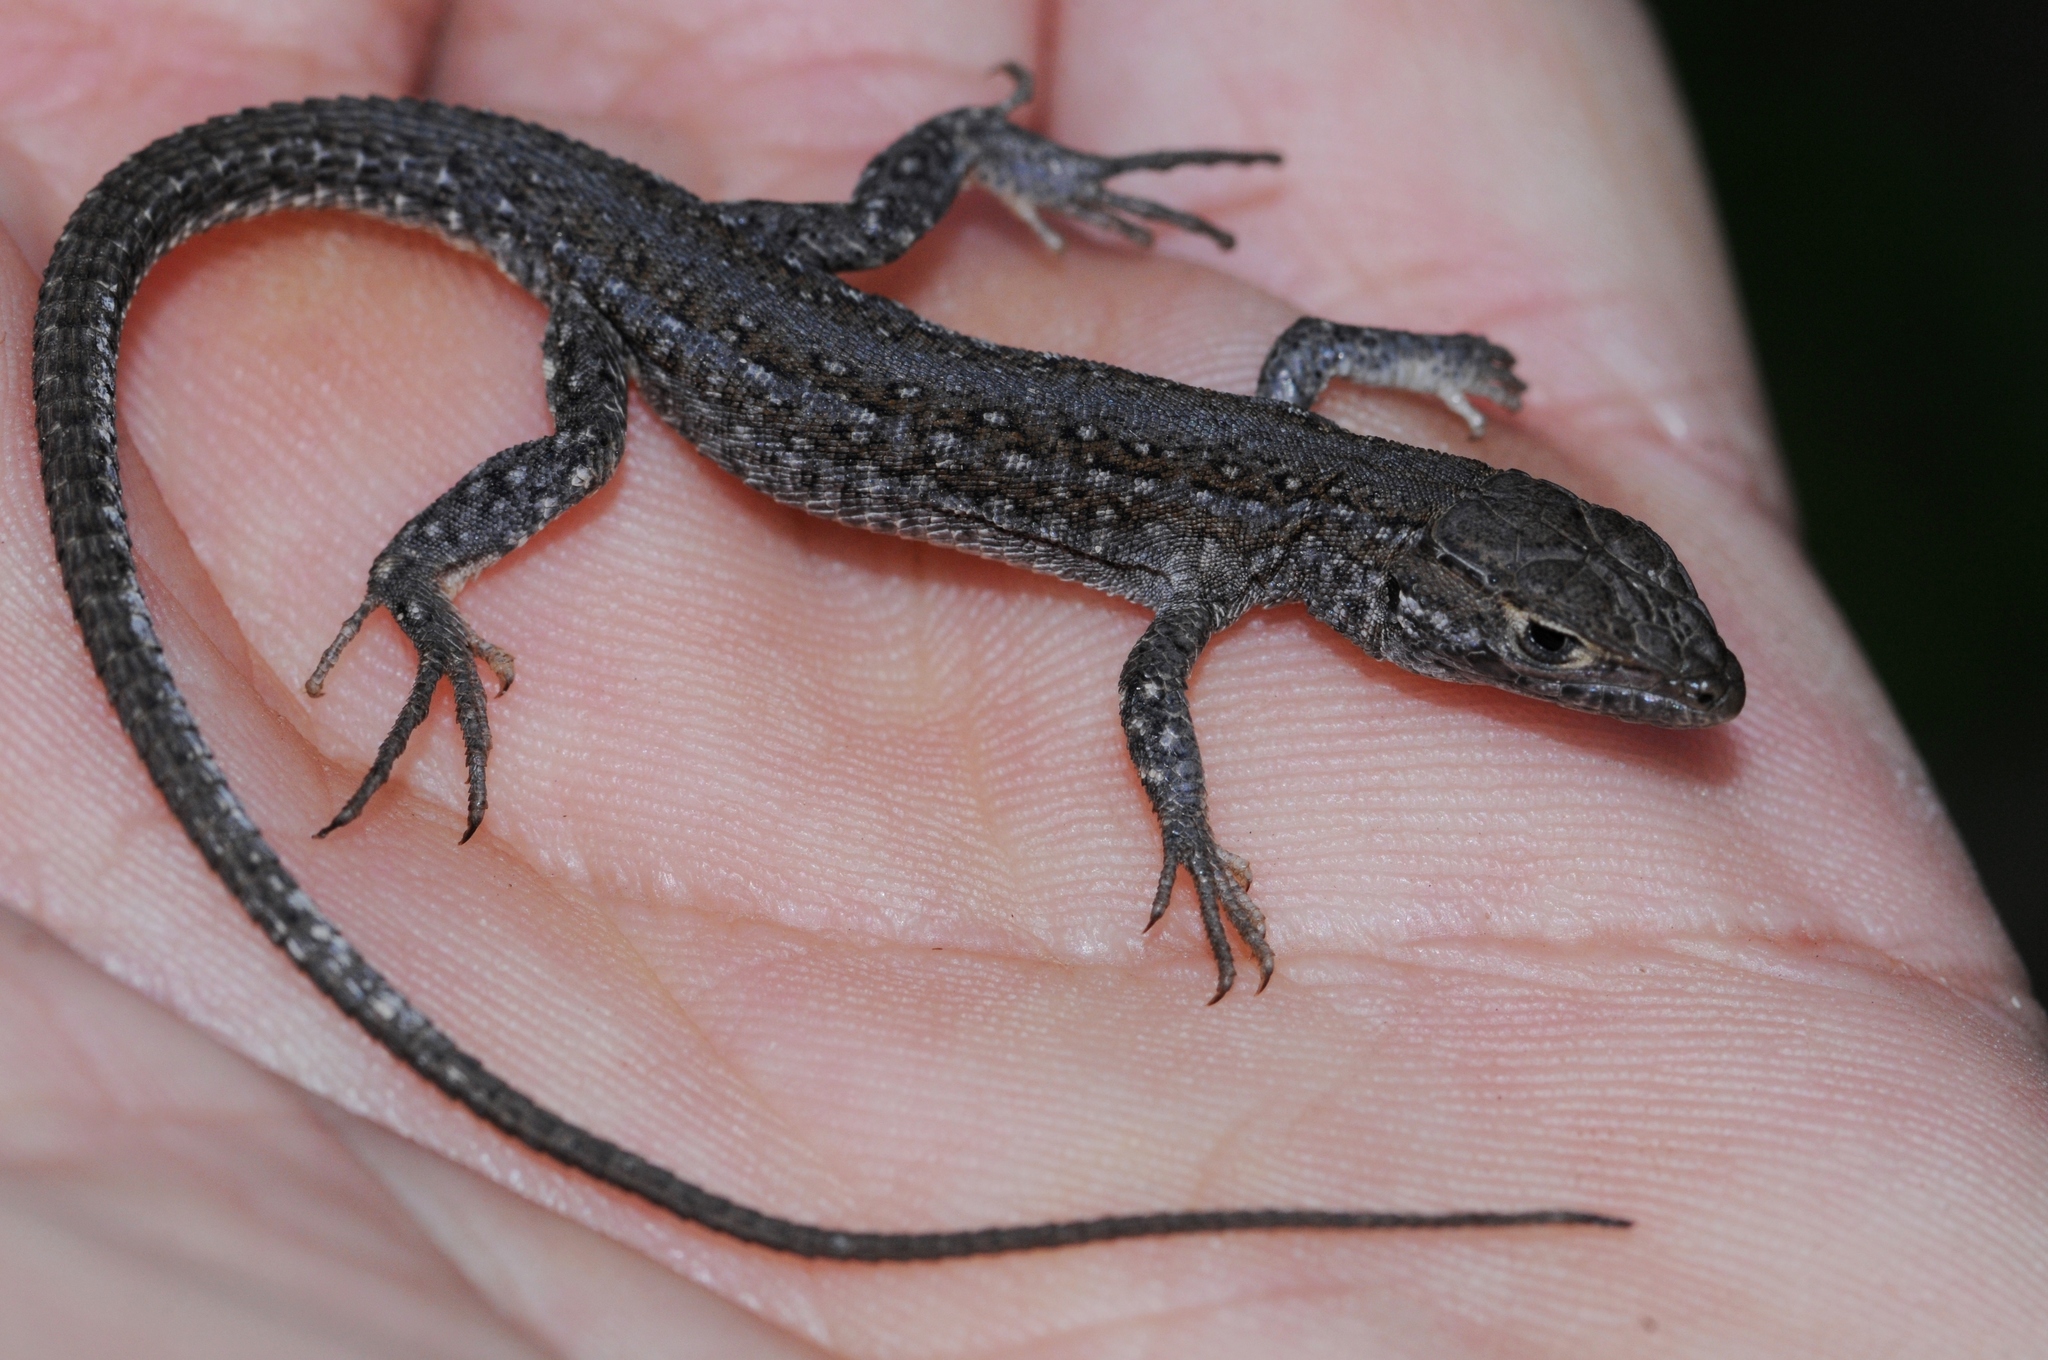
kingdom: Animalia
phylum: Chordata
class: Squamata
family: Lacertidae
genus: Meroles
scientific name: Meroles knoxii
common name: Knox's desert lizard
